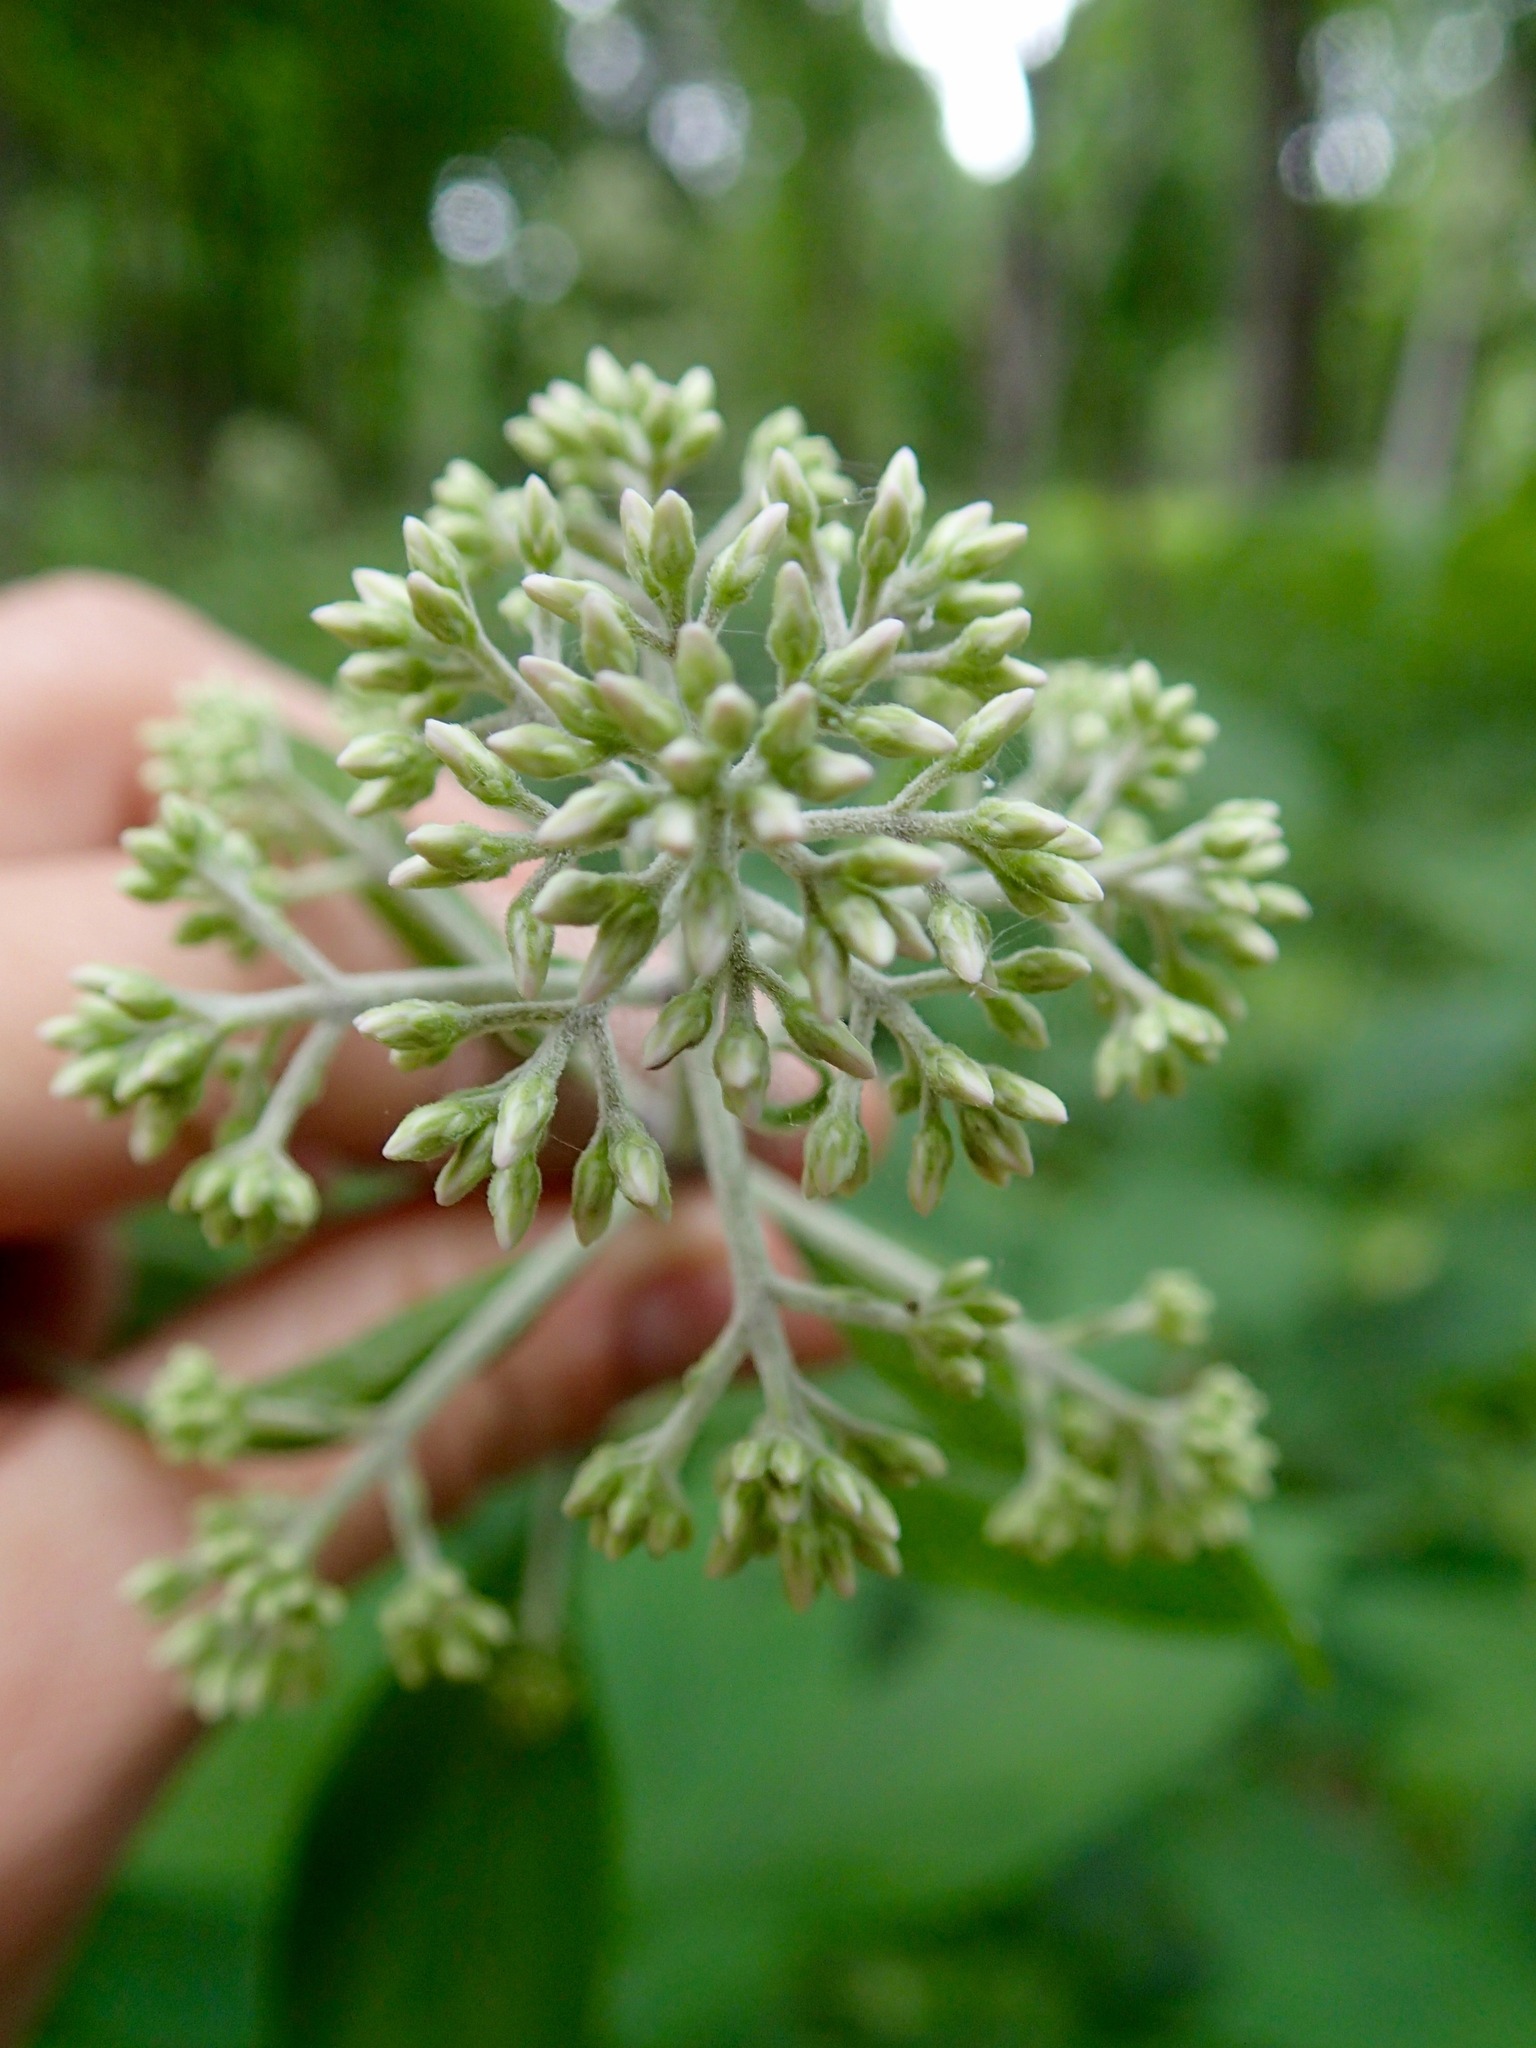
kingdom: Plantae
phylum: Tracheophyta
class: Magnoliopsida
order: Asterales
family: Asteraceae
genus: Eutrochium
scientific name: Eutrochium purpureum
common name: Gravelroot
